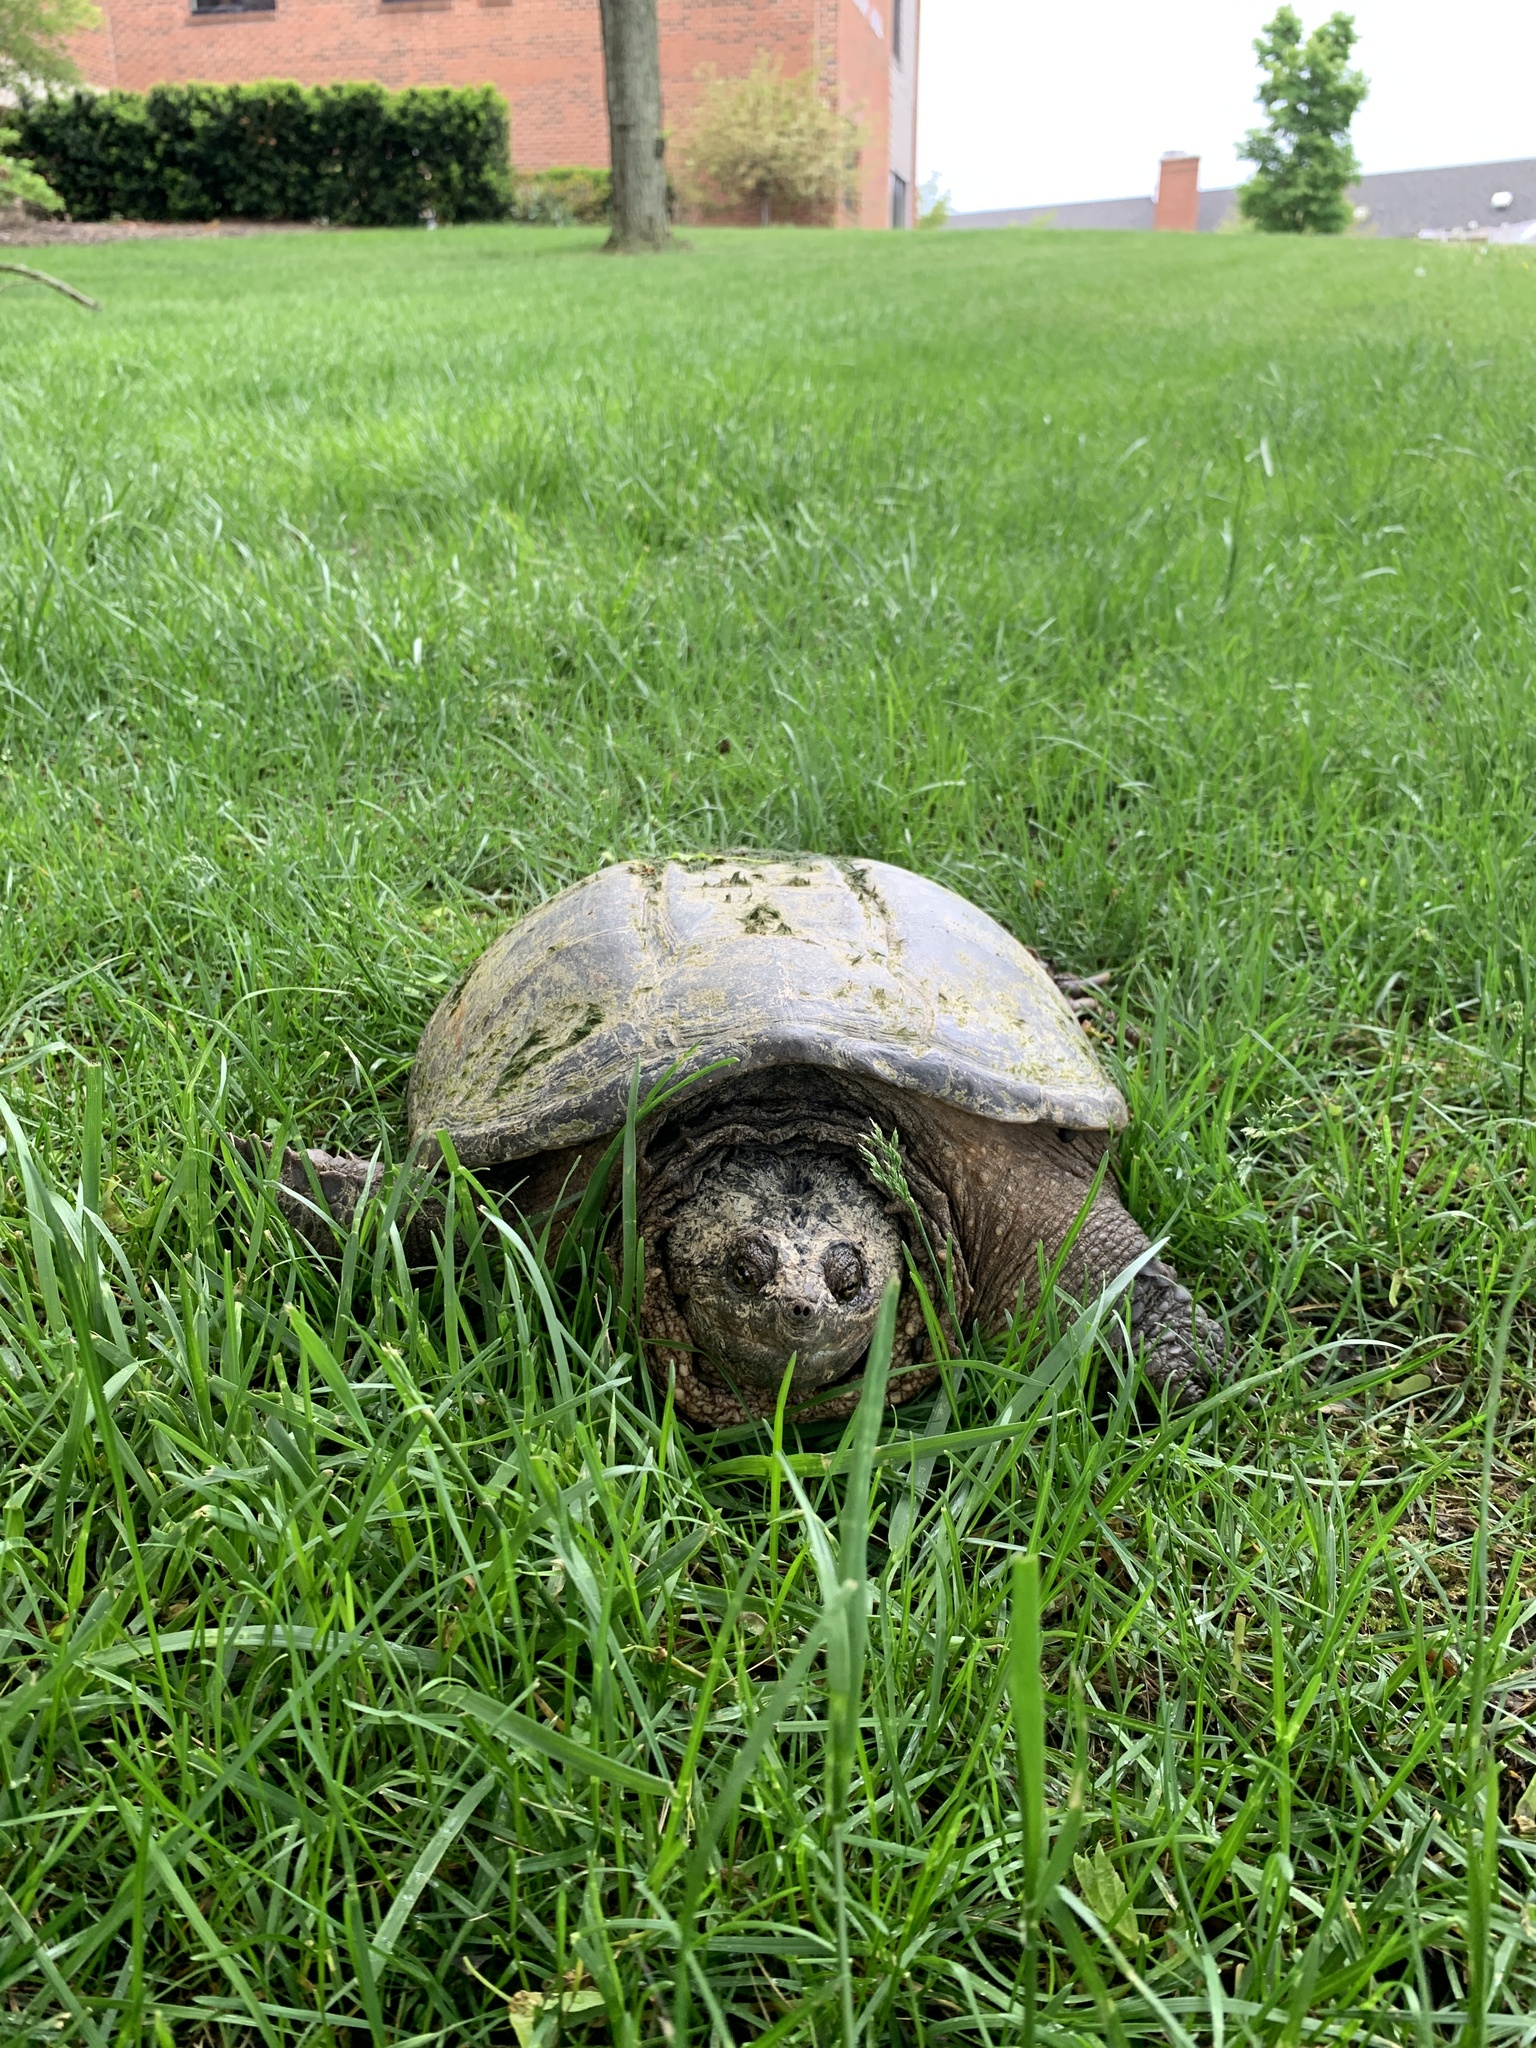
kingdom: Animalia
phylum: Chordata
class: Testudines
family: Chelydridae
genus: Chelydra
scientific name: Chelydra serpentina
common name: Common snapping turtle
